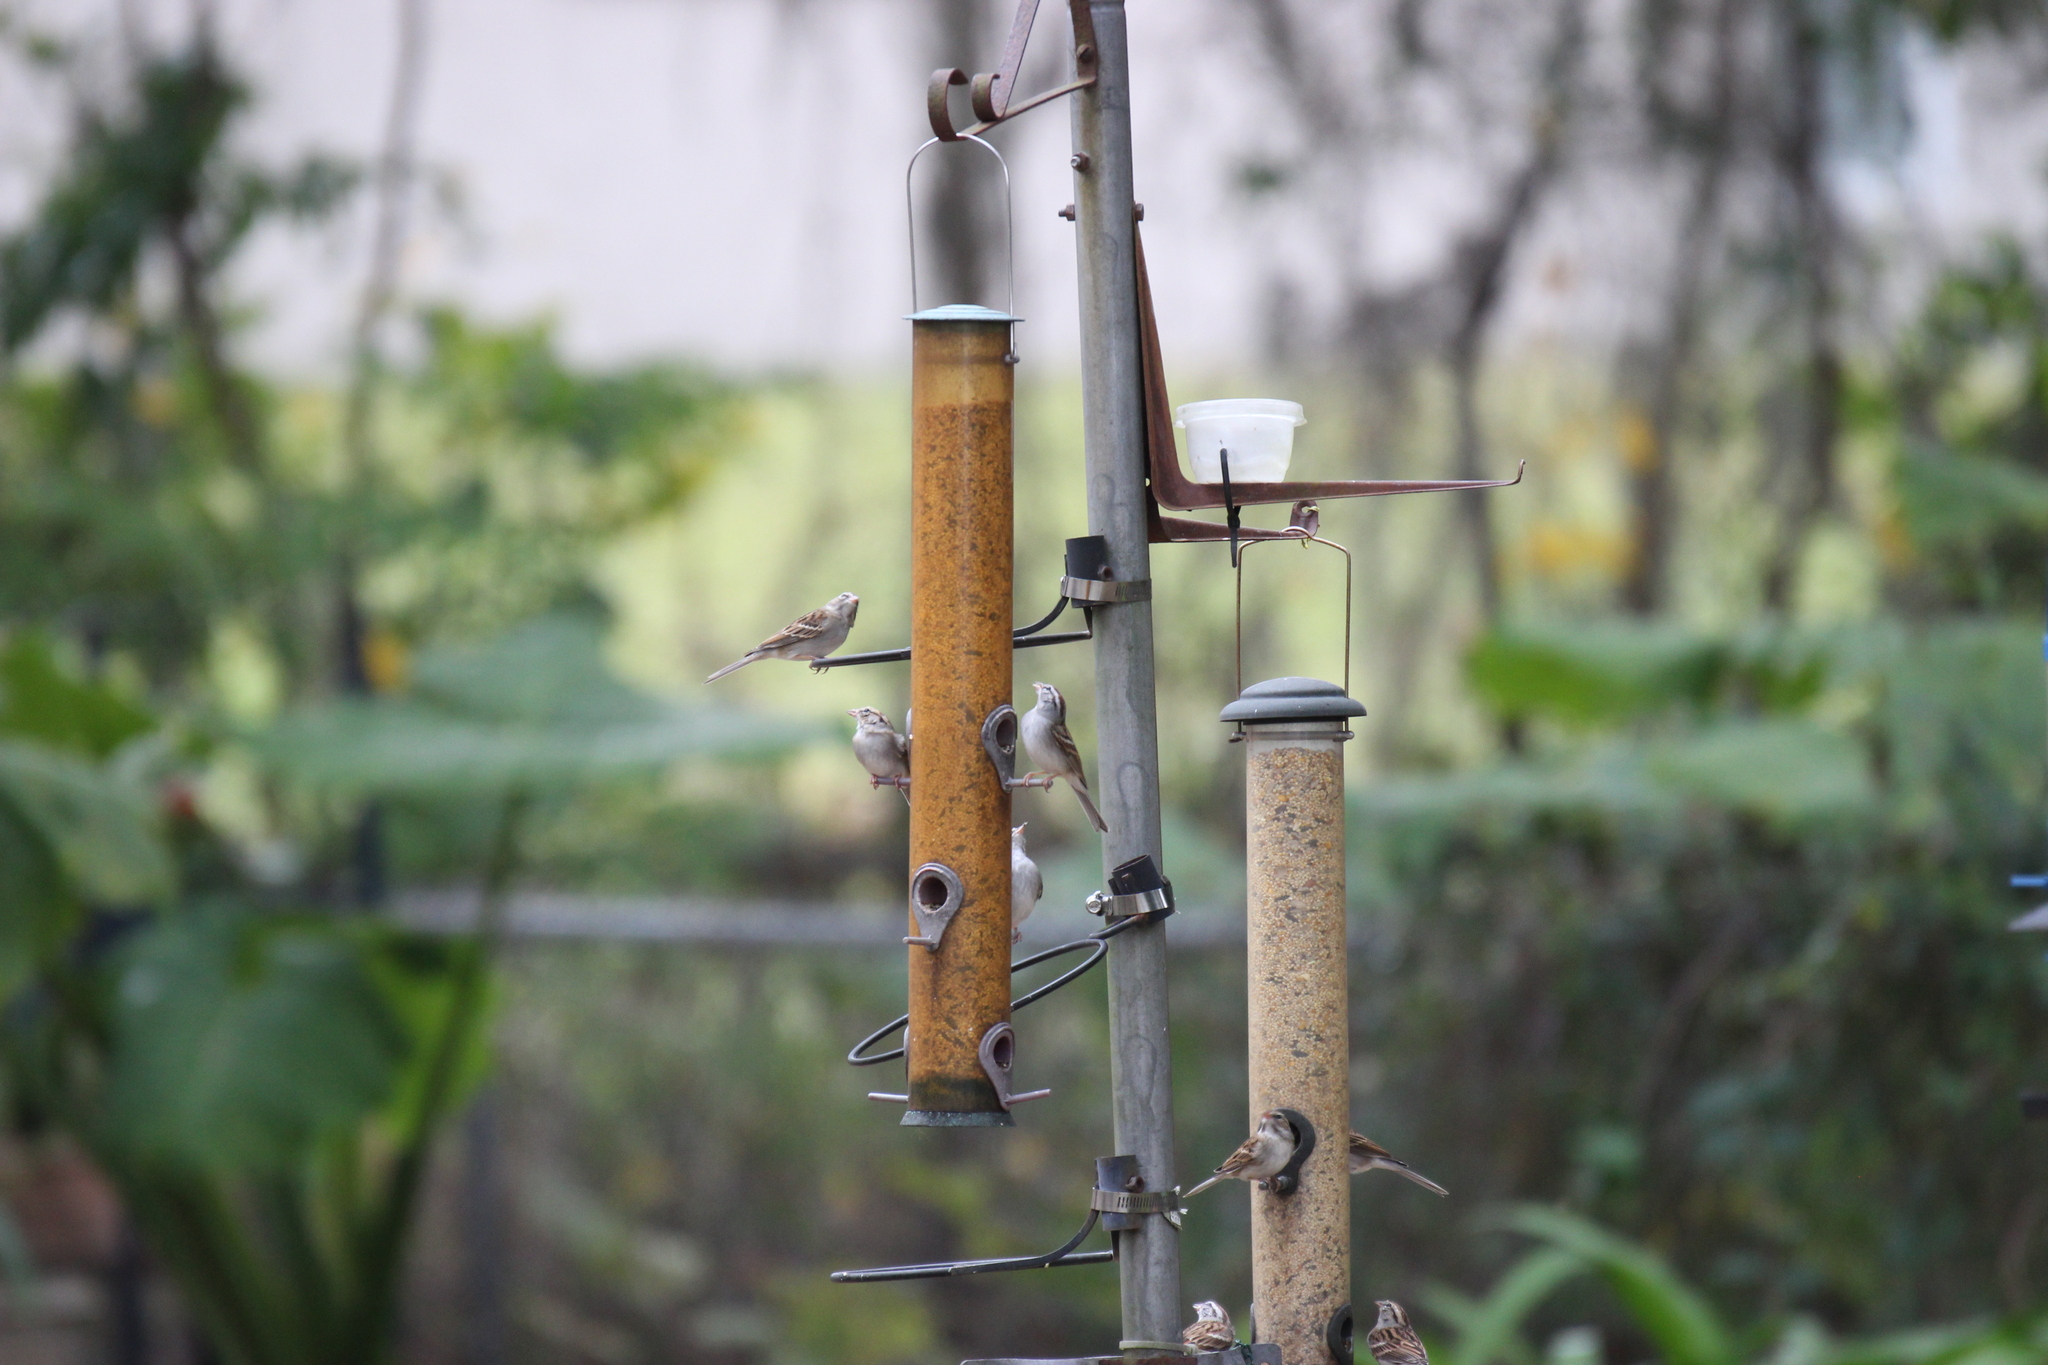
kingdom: Animalia
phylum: Chordata
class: Aves
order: Passeriformes
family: Passerellidae
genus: Spizella
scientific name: Spizella passerina
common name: Chipping sparrow
